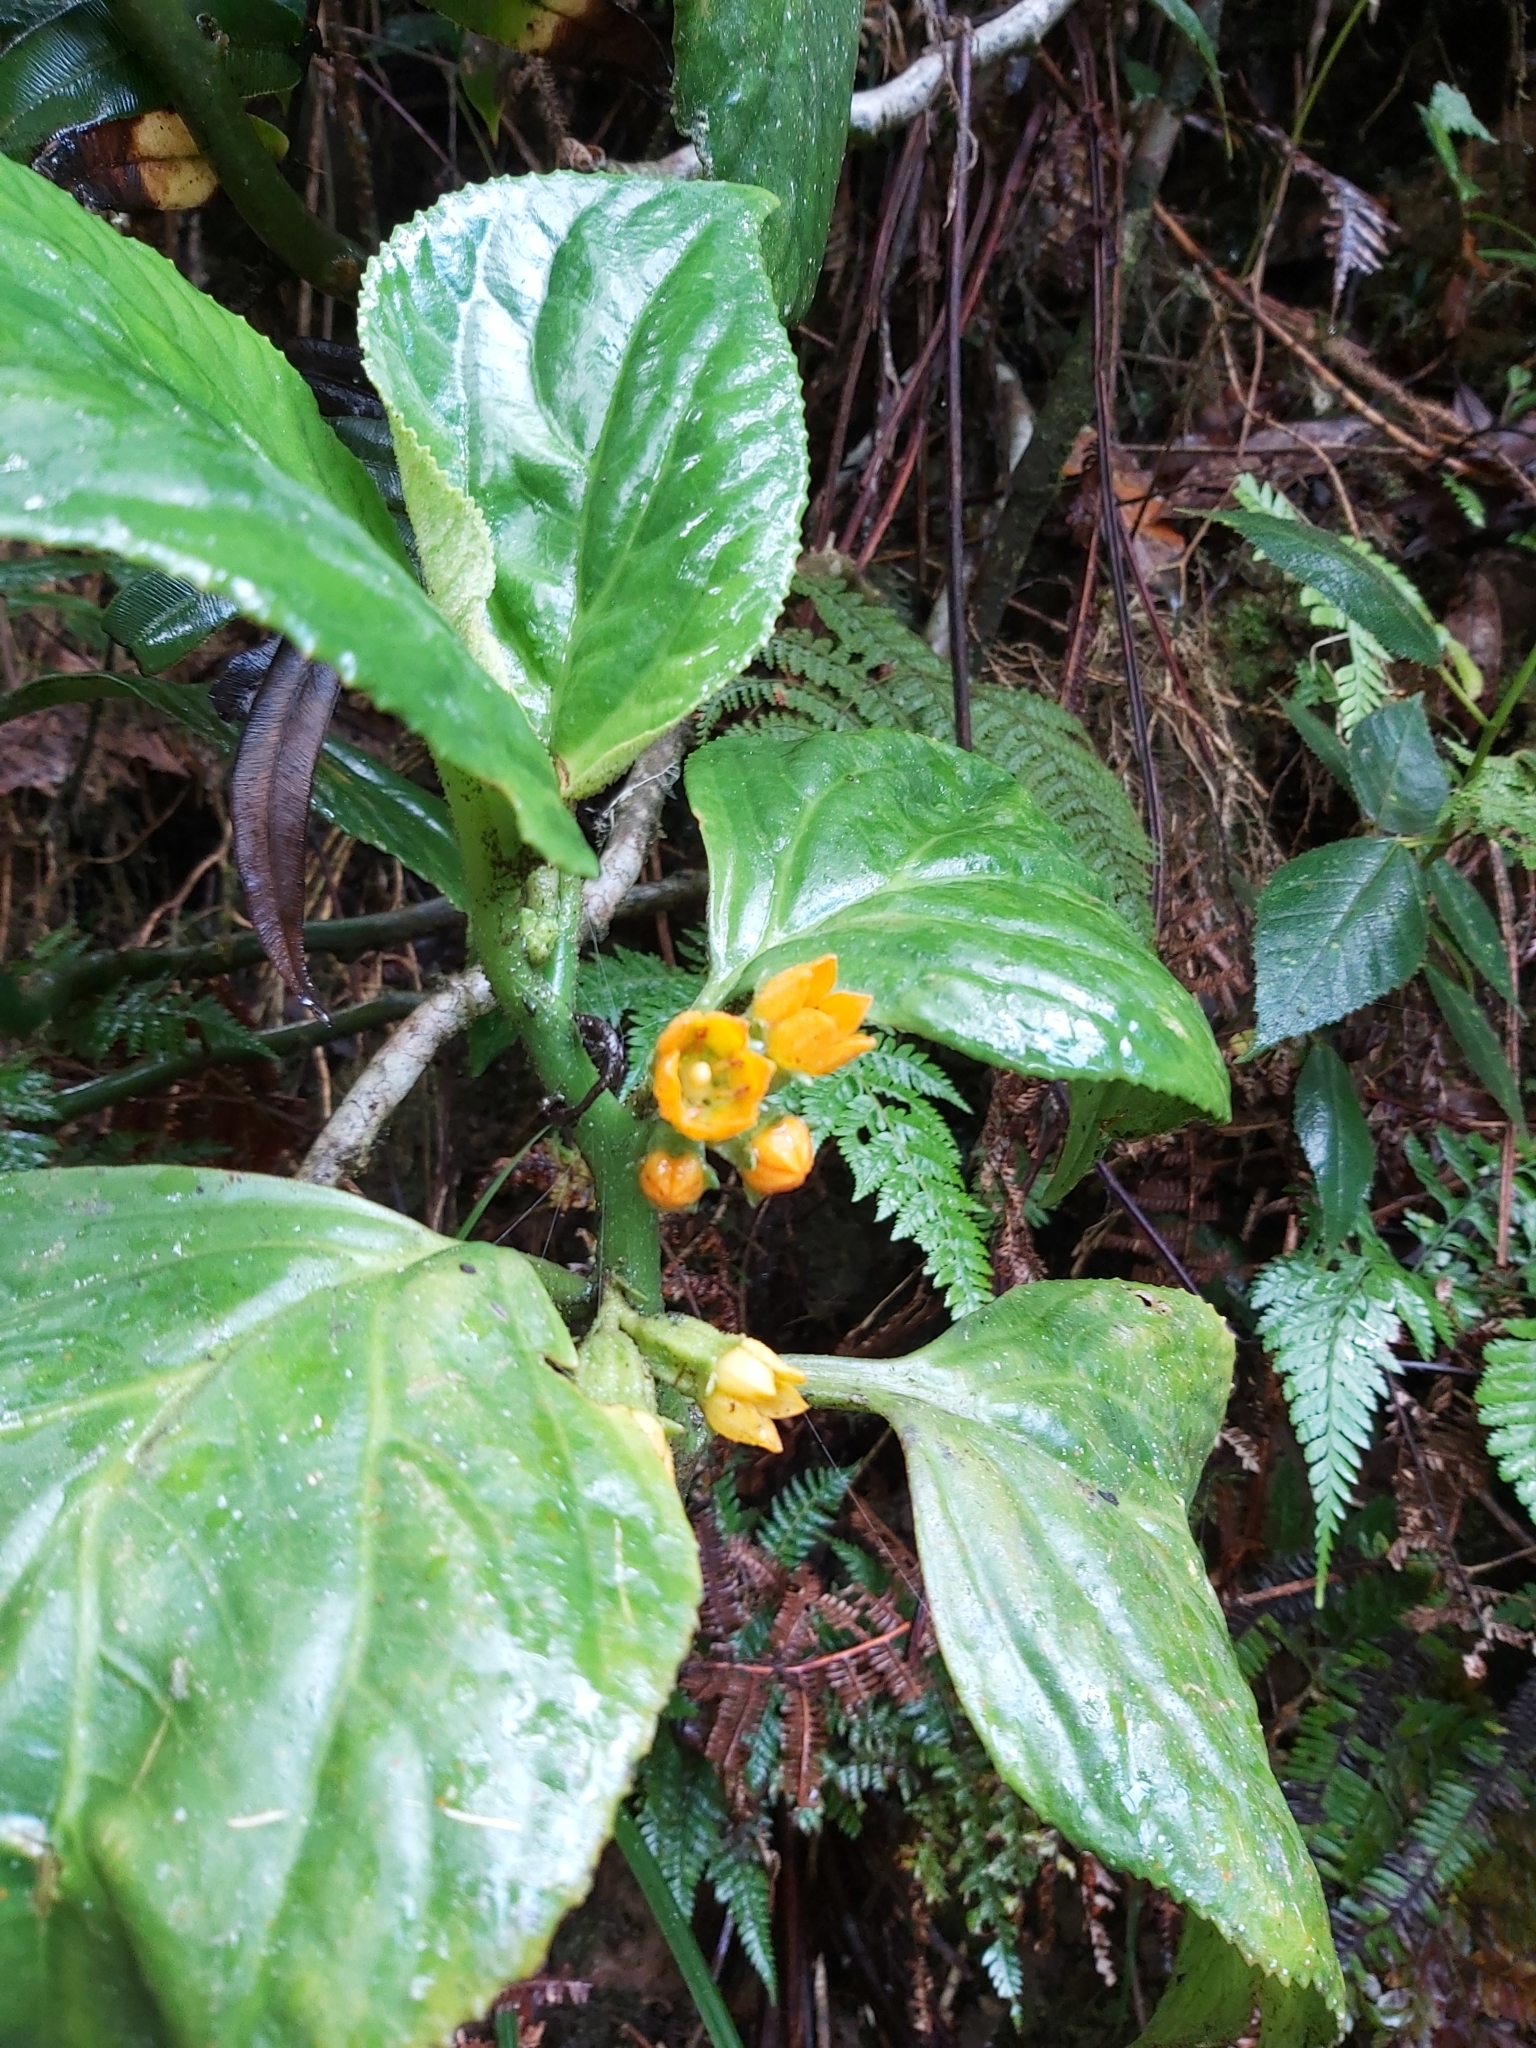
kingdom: Plantae
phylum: Tracheophyta
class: Magnoliopsida
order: Asterales
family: Pentaphragmataceae
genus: Pentaphragma
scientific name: Pentaphragma aurantiacum
